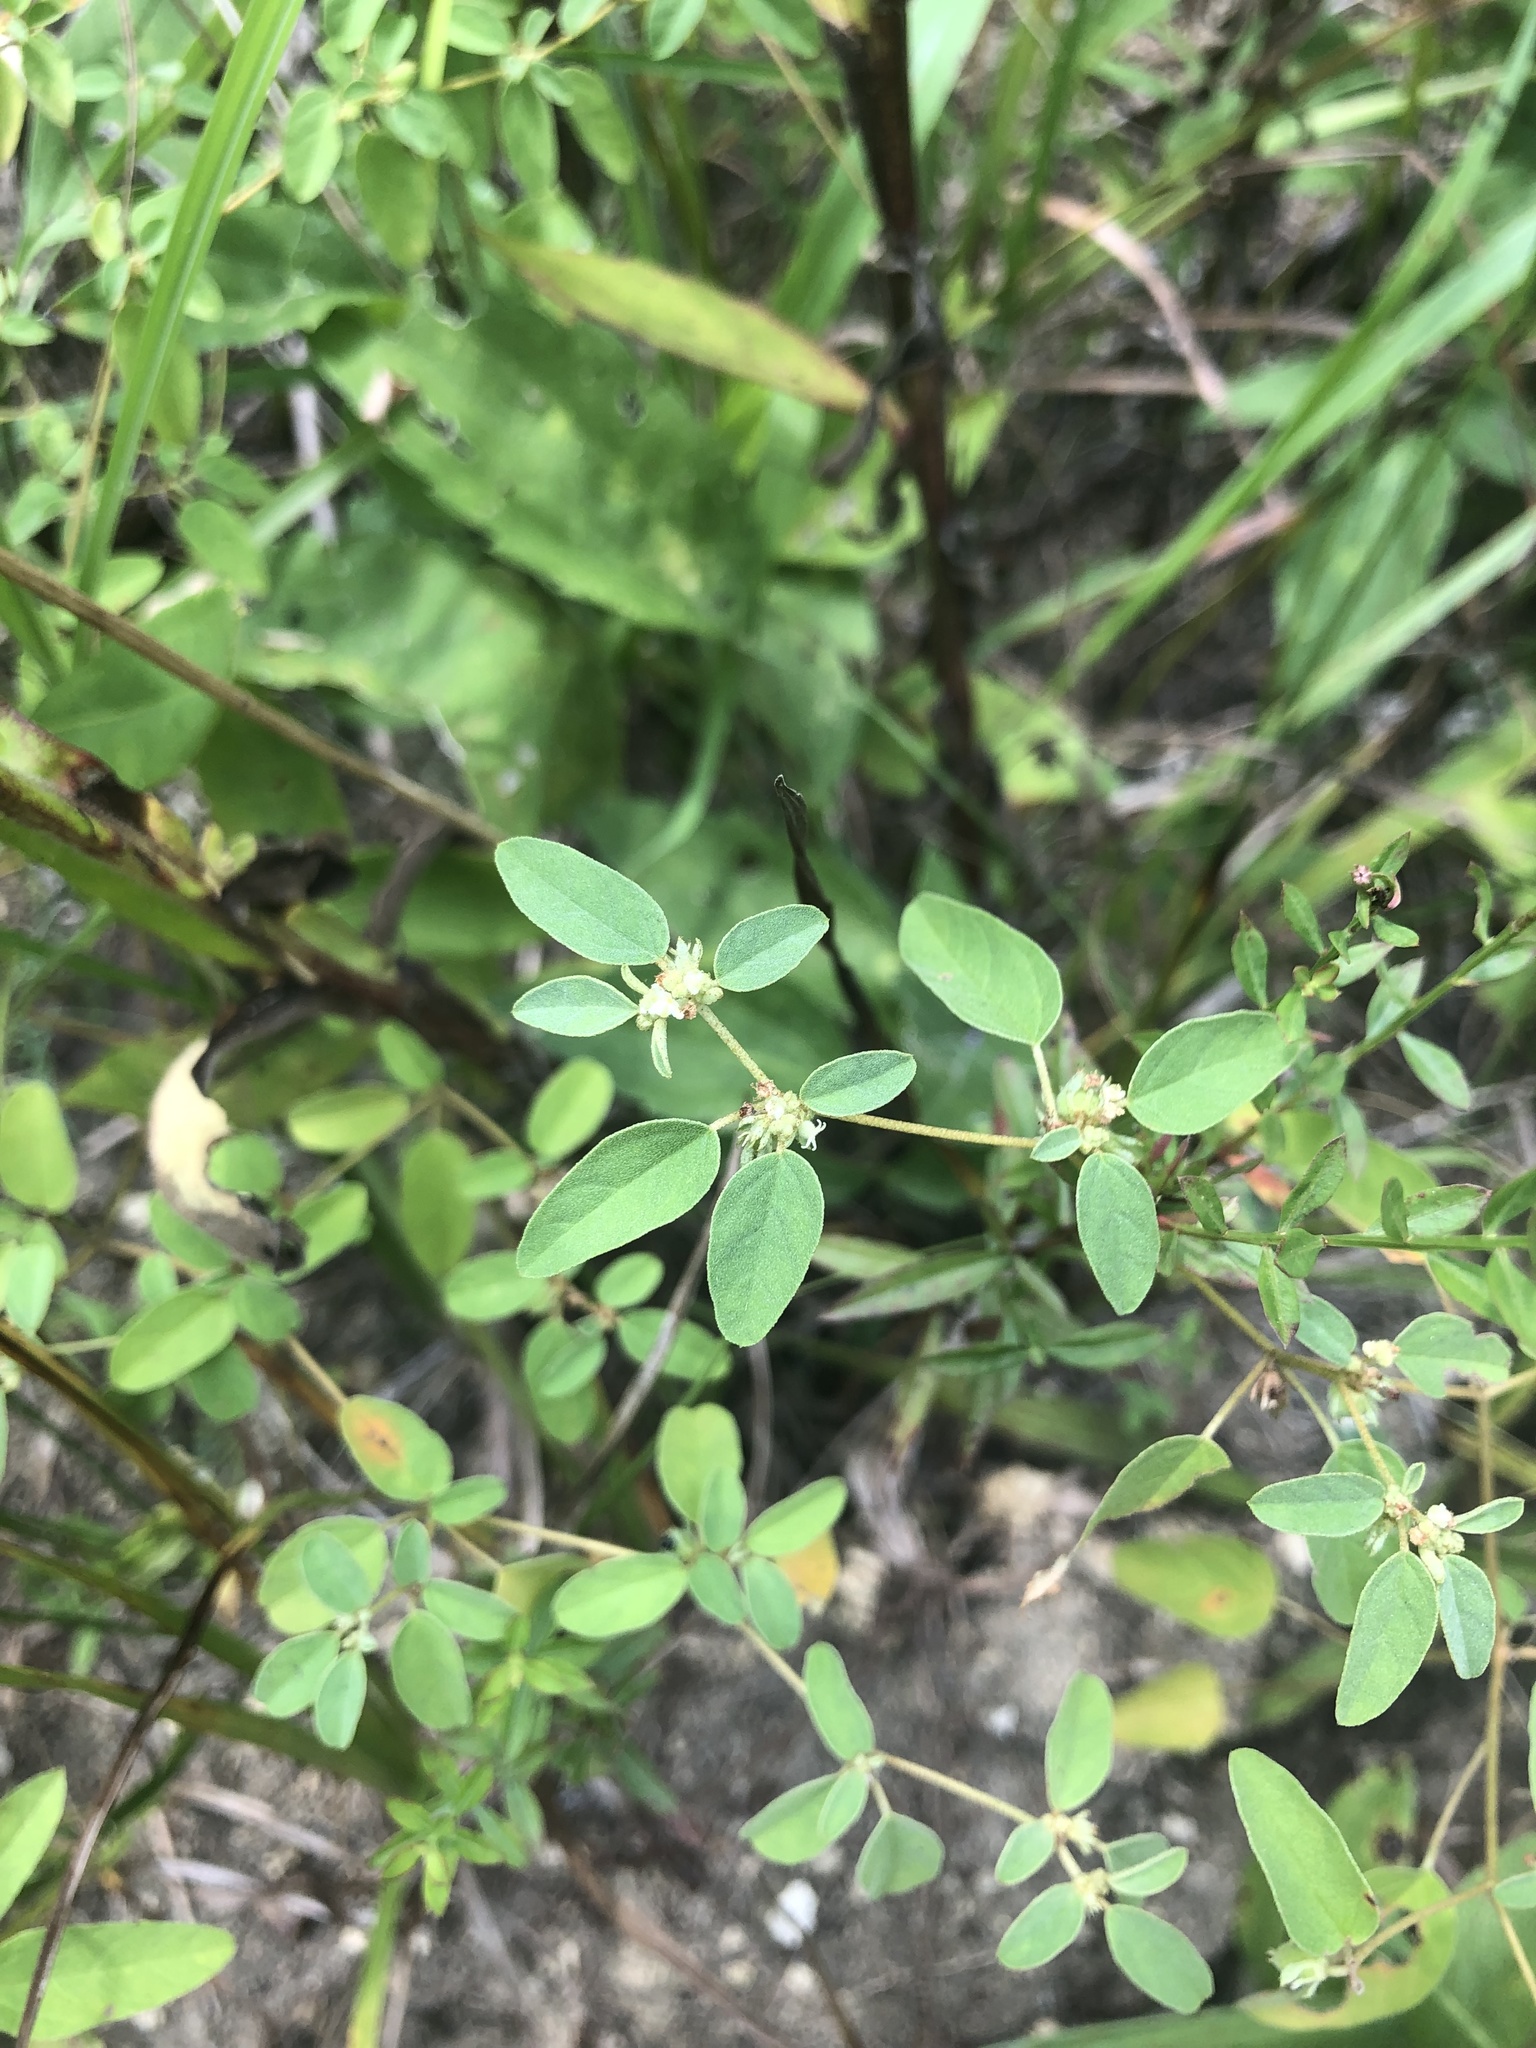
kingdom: Plantae
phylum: Tracheophyta
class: Magnoliopsida
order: Malpighiales
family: Euphorbiaceae
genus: Croton
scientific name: Croton monanthogynus
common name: One-seed croton
